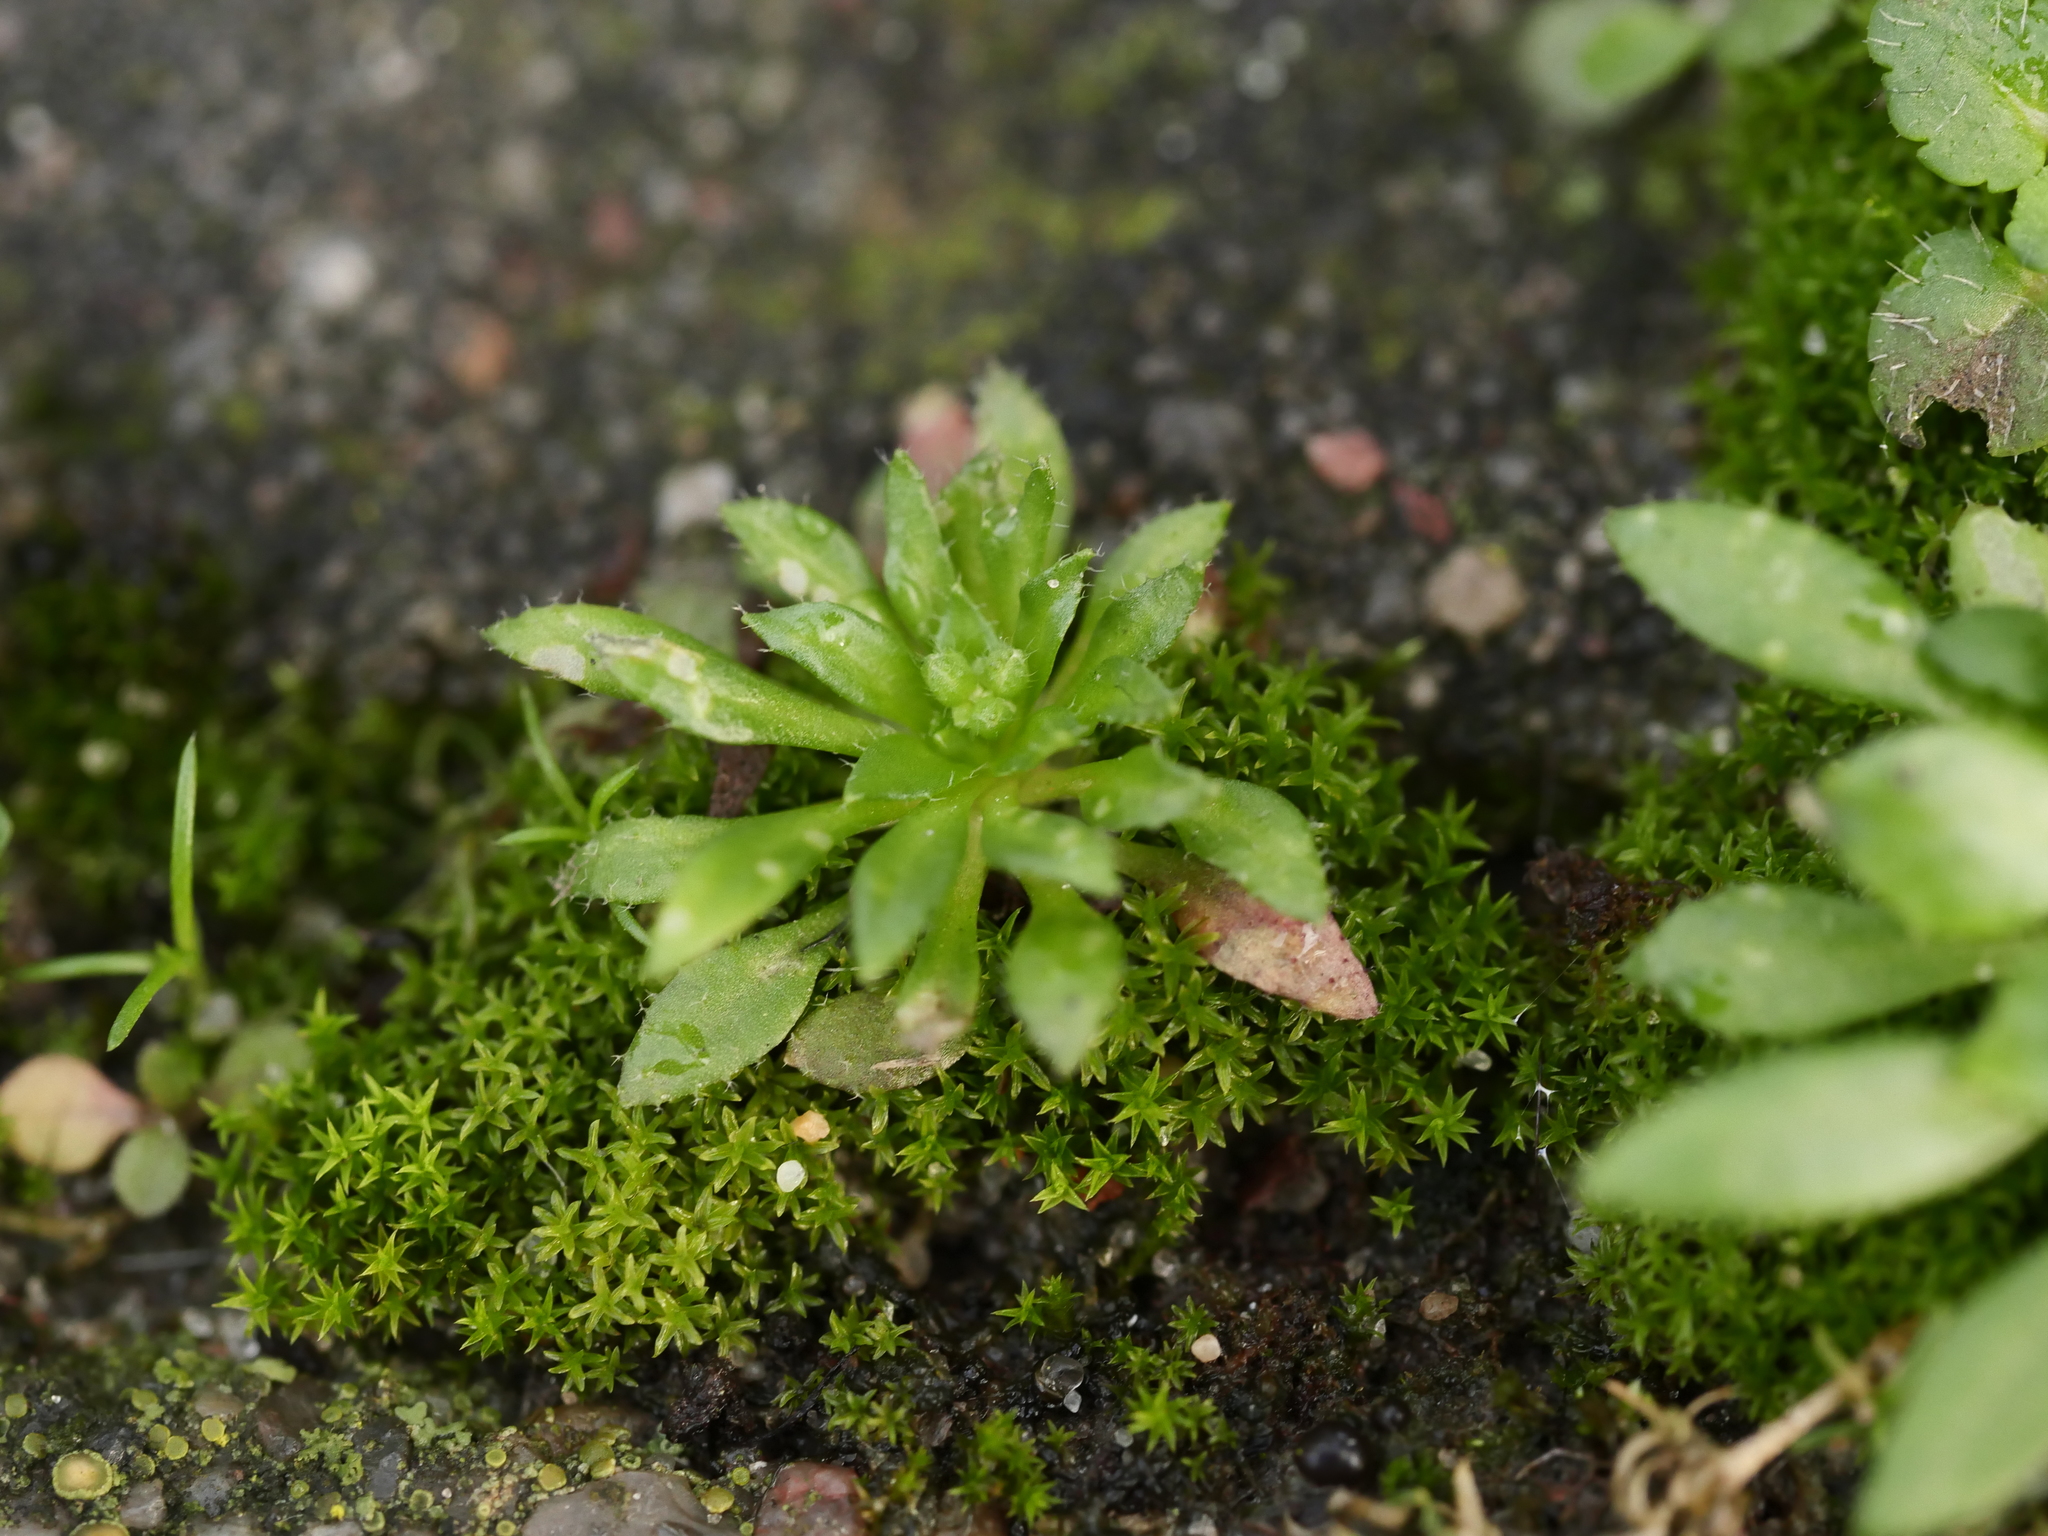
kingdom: Plantae
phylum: Tracheophyta
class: Magnoliopsida
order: Brassicales
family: Brassicaceae
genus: Draba
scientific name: Draba verna
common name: Spring draba
